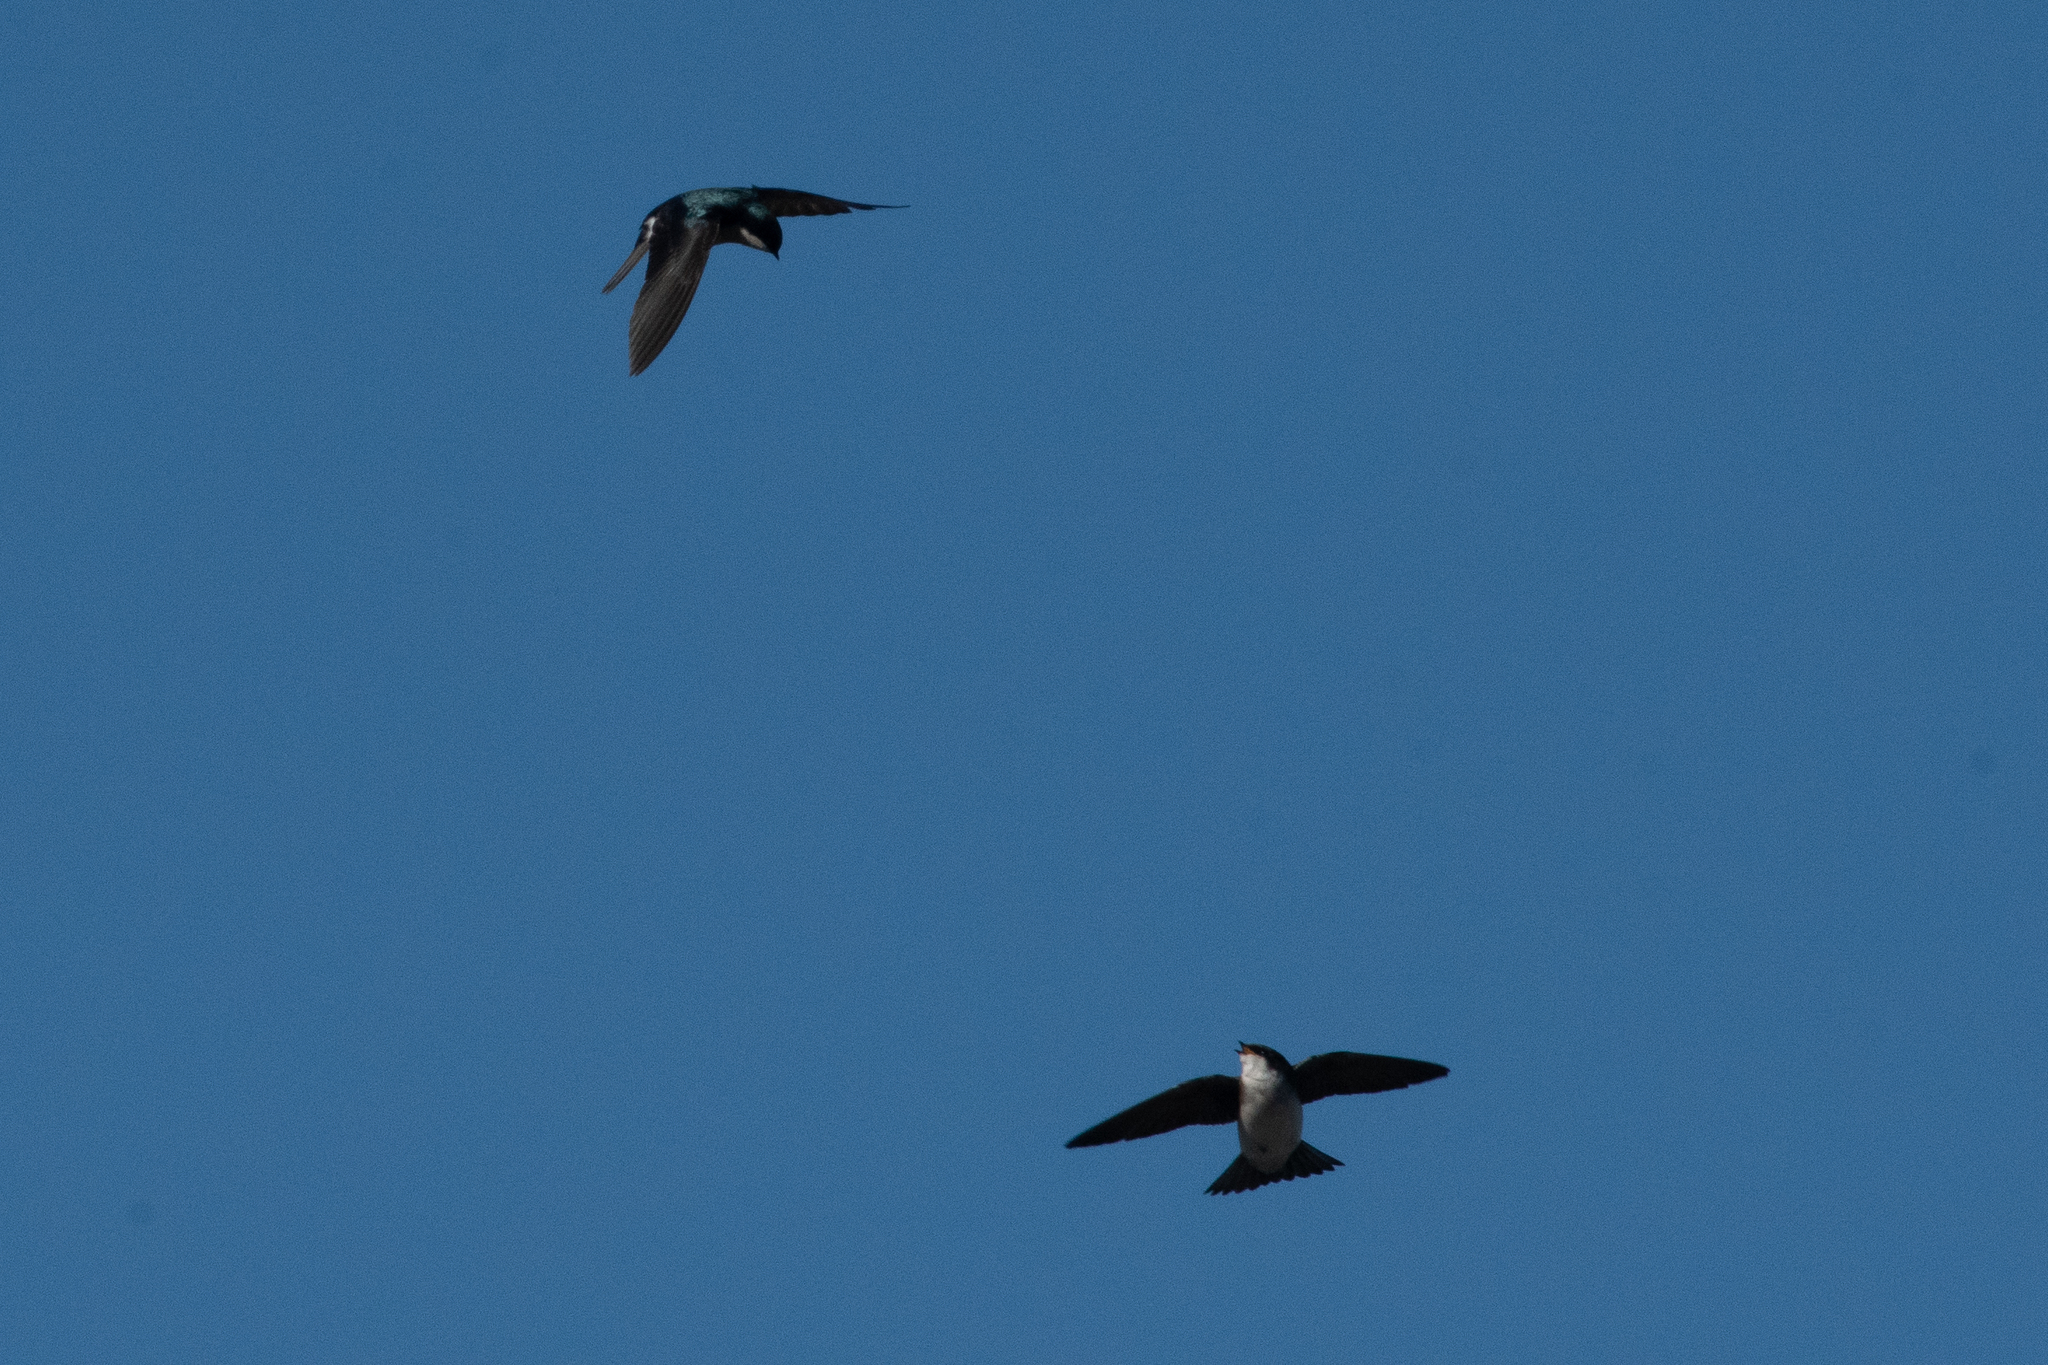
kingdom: Animalia
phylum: Chordata
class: Aves
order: Passeriformes
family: Hirundinidae
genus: Tachycineta
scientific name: Tachycineta bicolor
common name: Tree swallow
